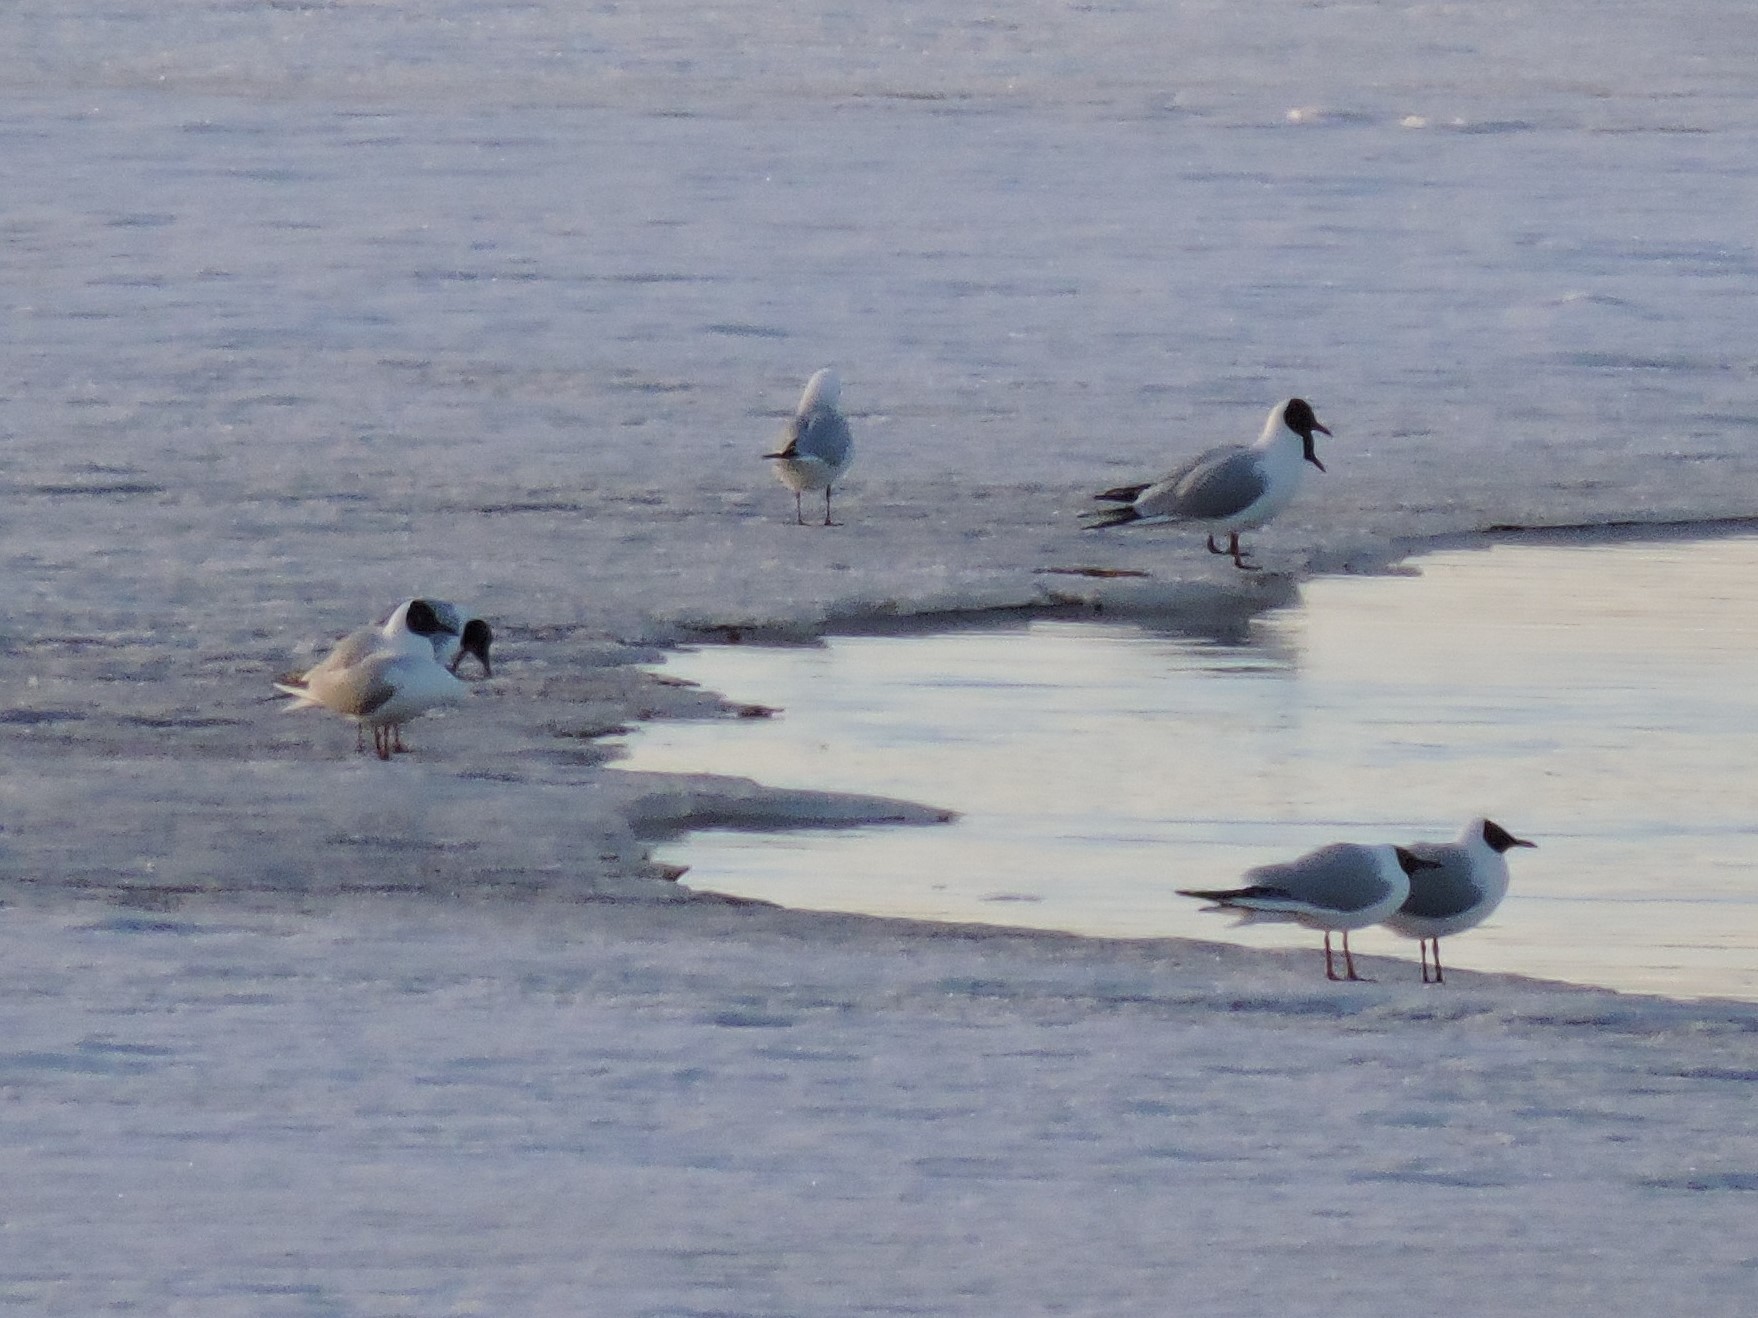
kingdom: Animalia
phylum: Chordata
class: Aves
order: Charadriiformes
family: Laridae
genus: Chroicocephalus
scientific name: Chroicocephalus ridibundus
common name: Black-headed gull
